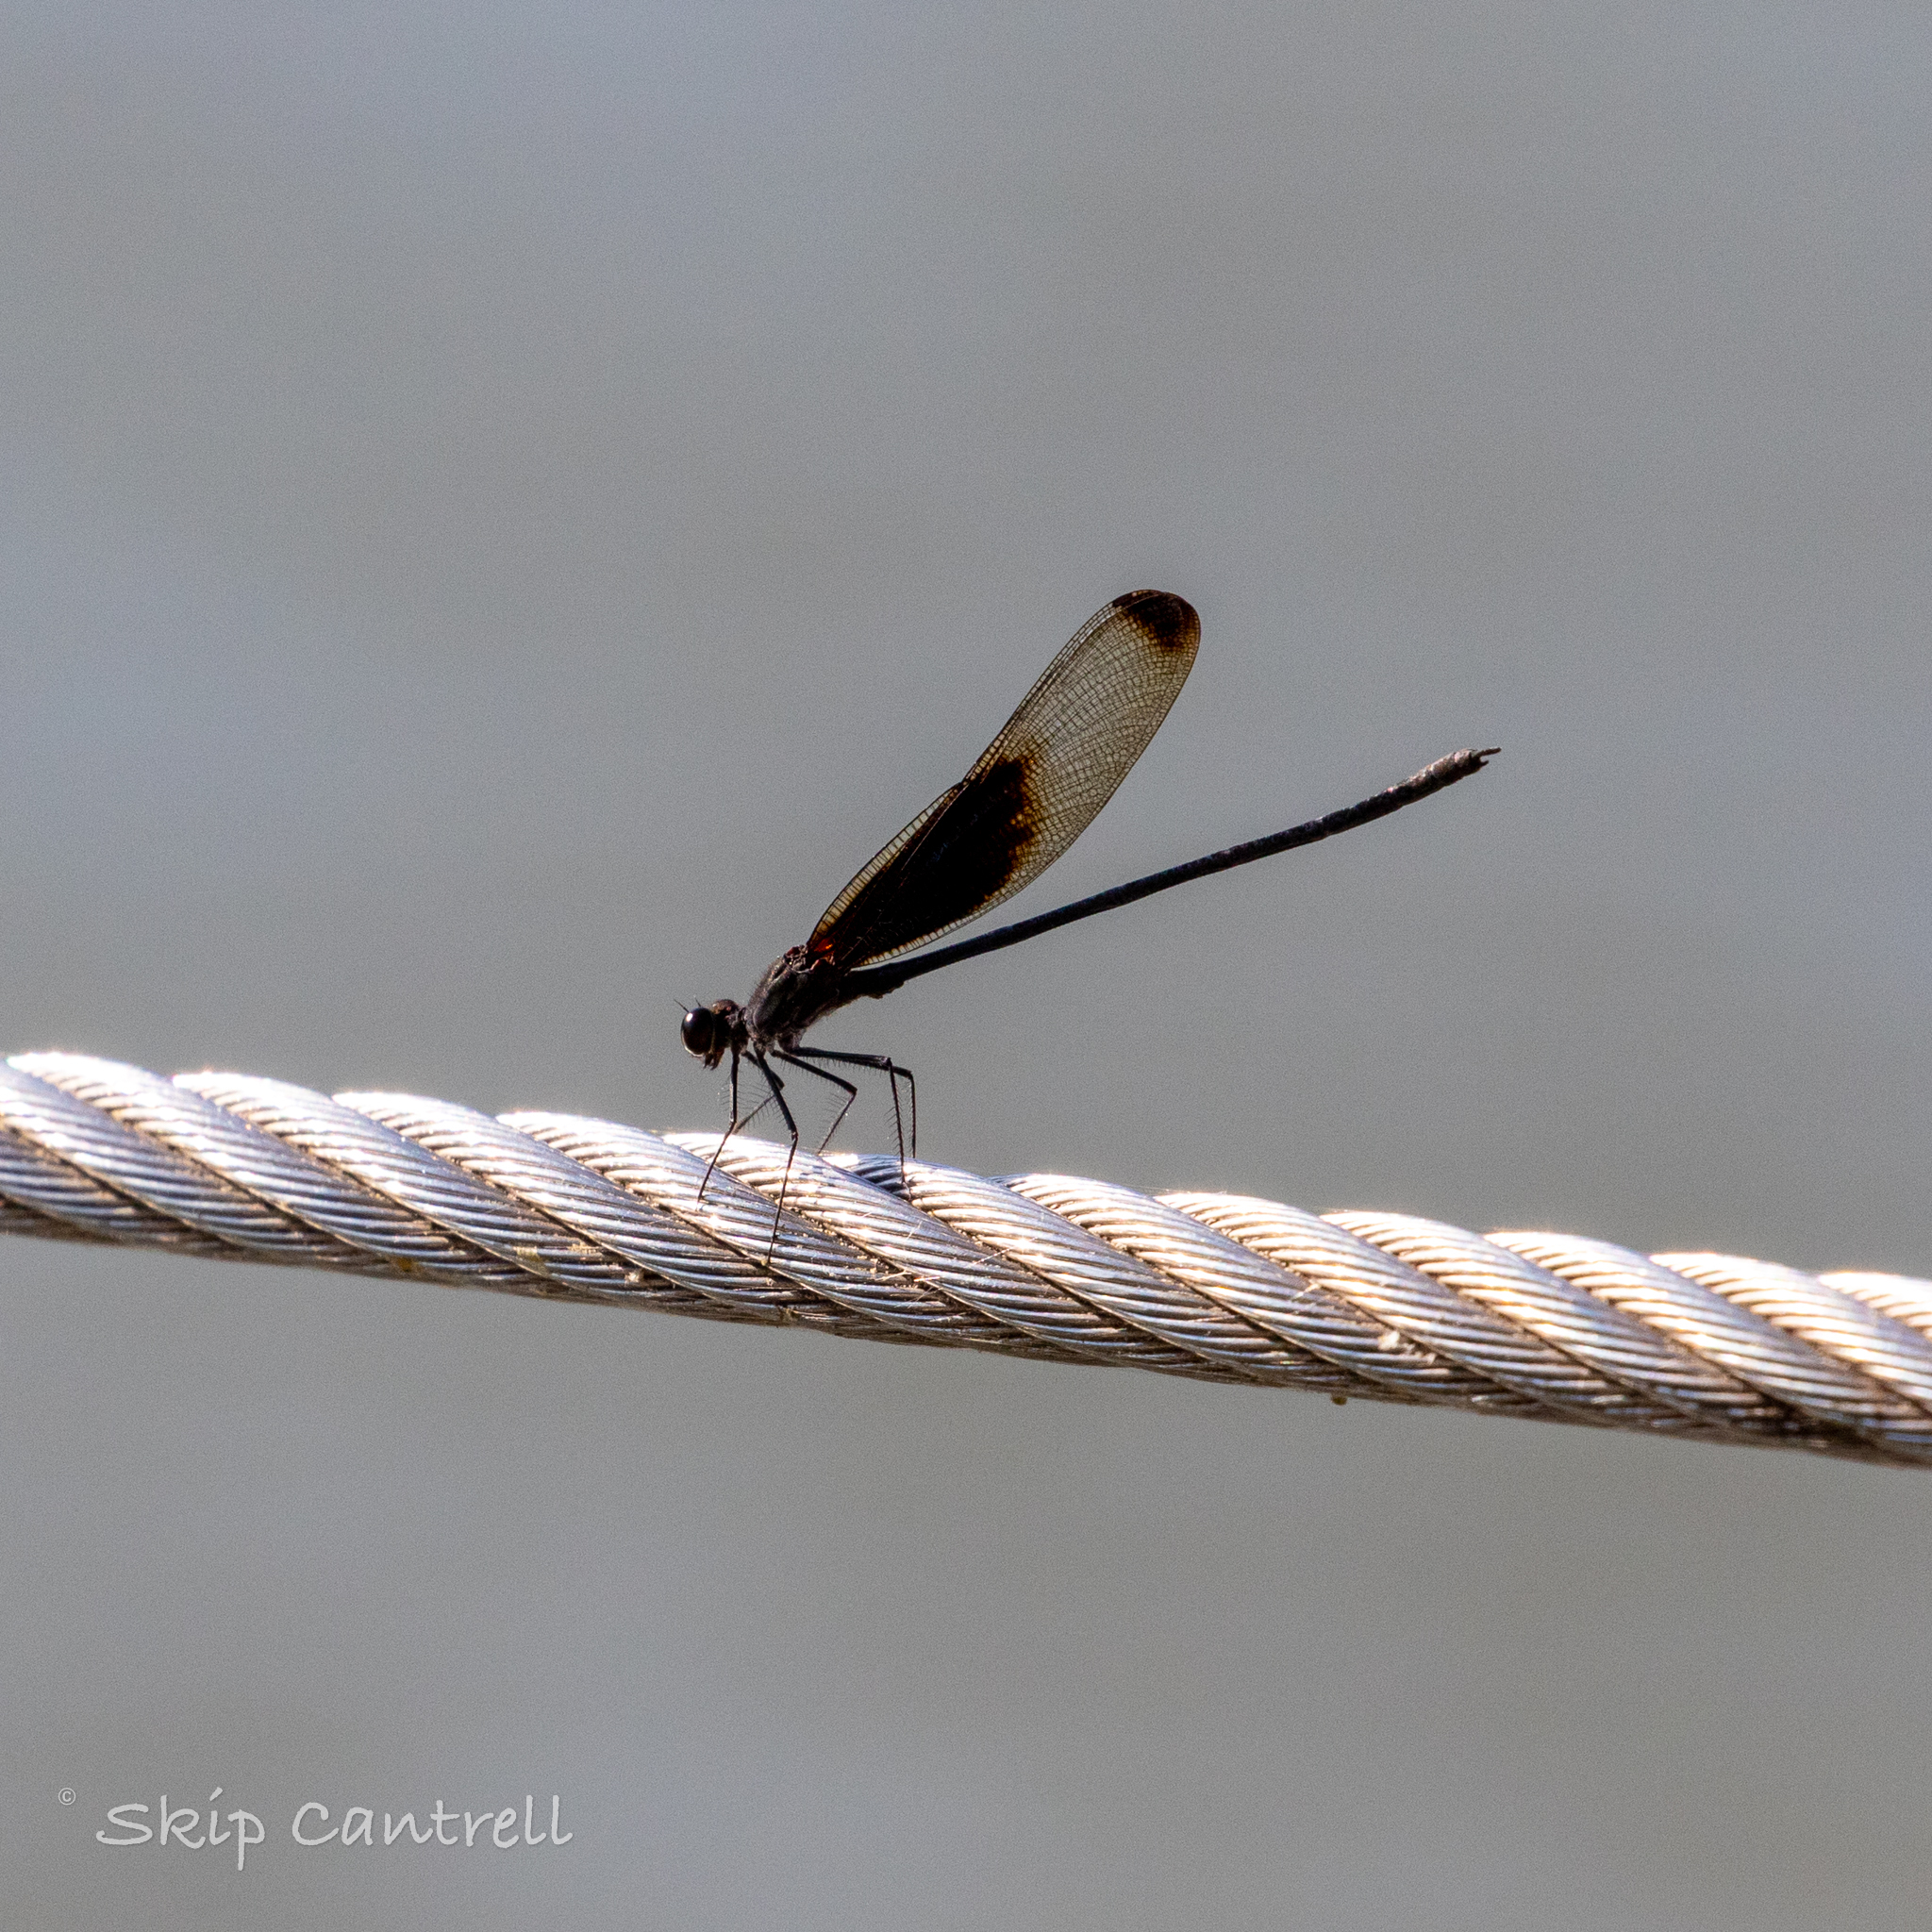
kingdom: Animalia
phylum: Arthropoda
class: Insecta
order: Odonata
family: Calopterygidae
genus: Hetaerina
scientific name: Hetaerina titia
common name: Smoky rubyspot
